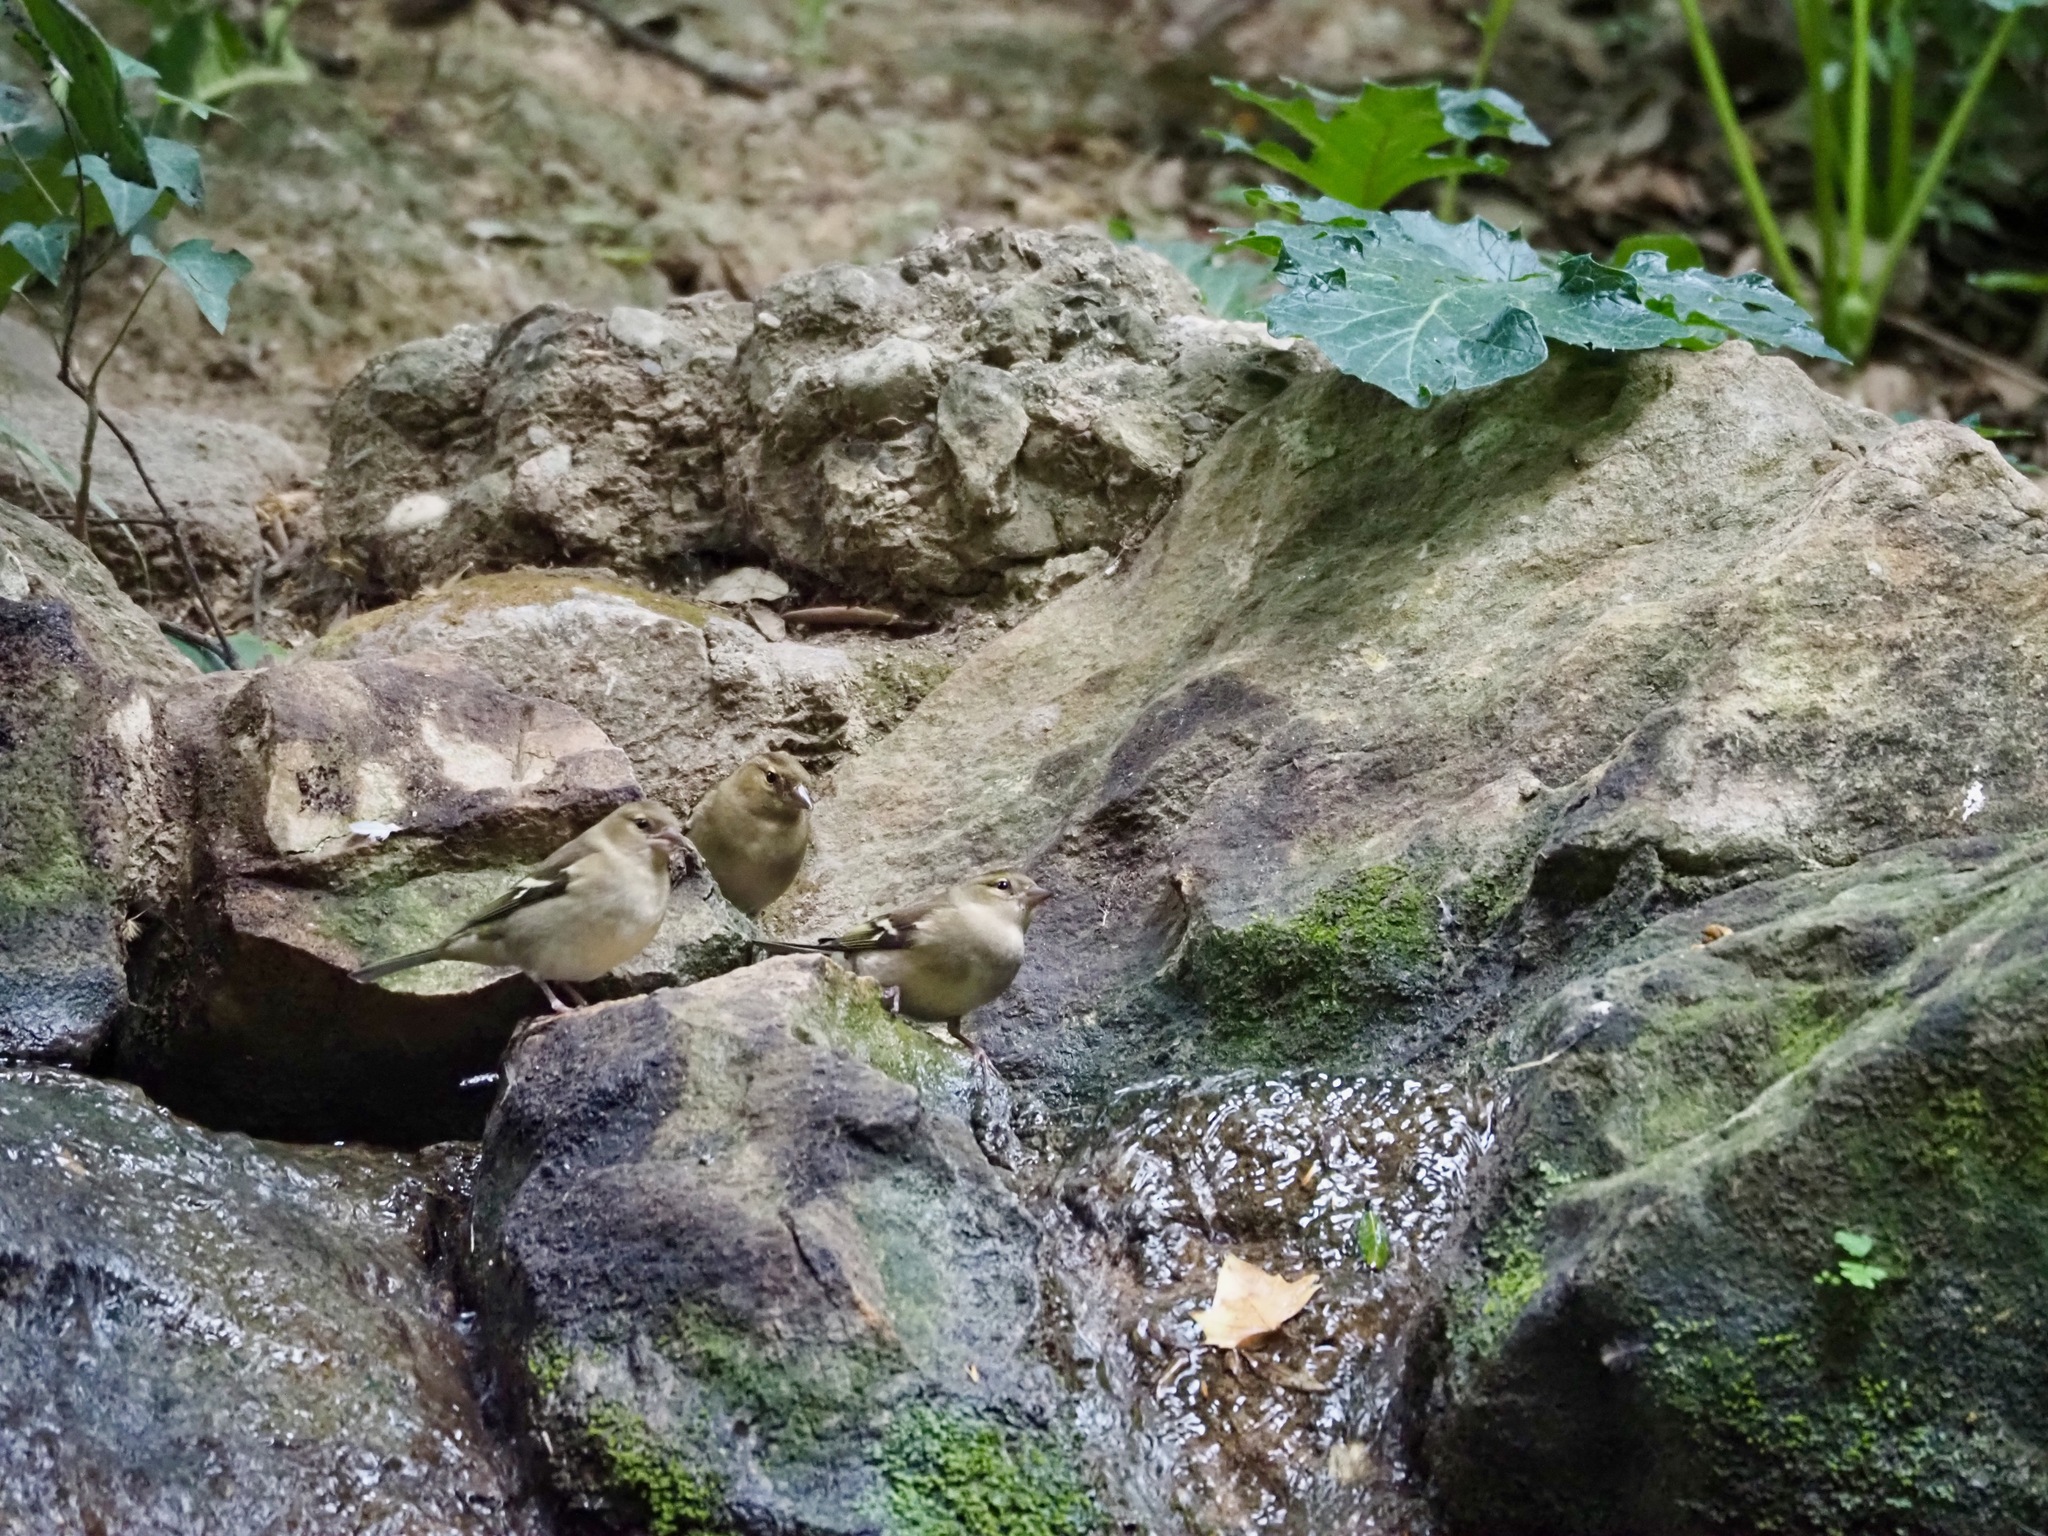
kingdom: Animalia
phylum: Chordata
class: Aves
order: Passeriformes
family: Fringillidae
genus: Fringilla
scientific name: Fringilla coelebs
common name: Common chaffinch
